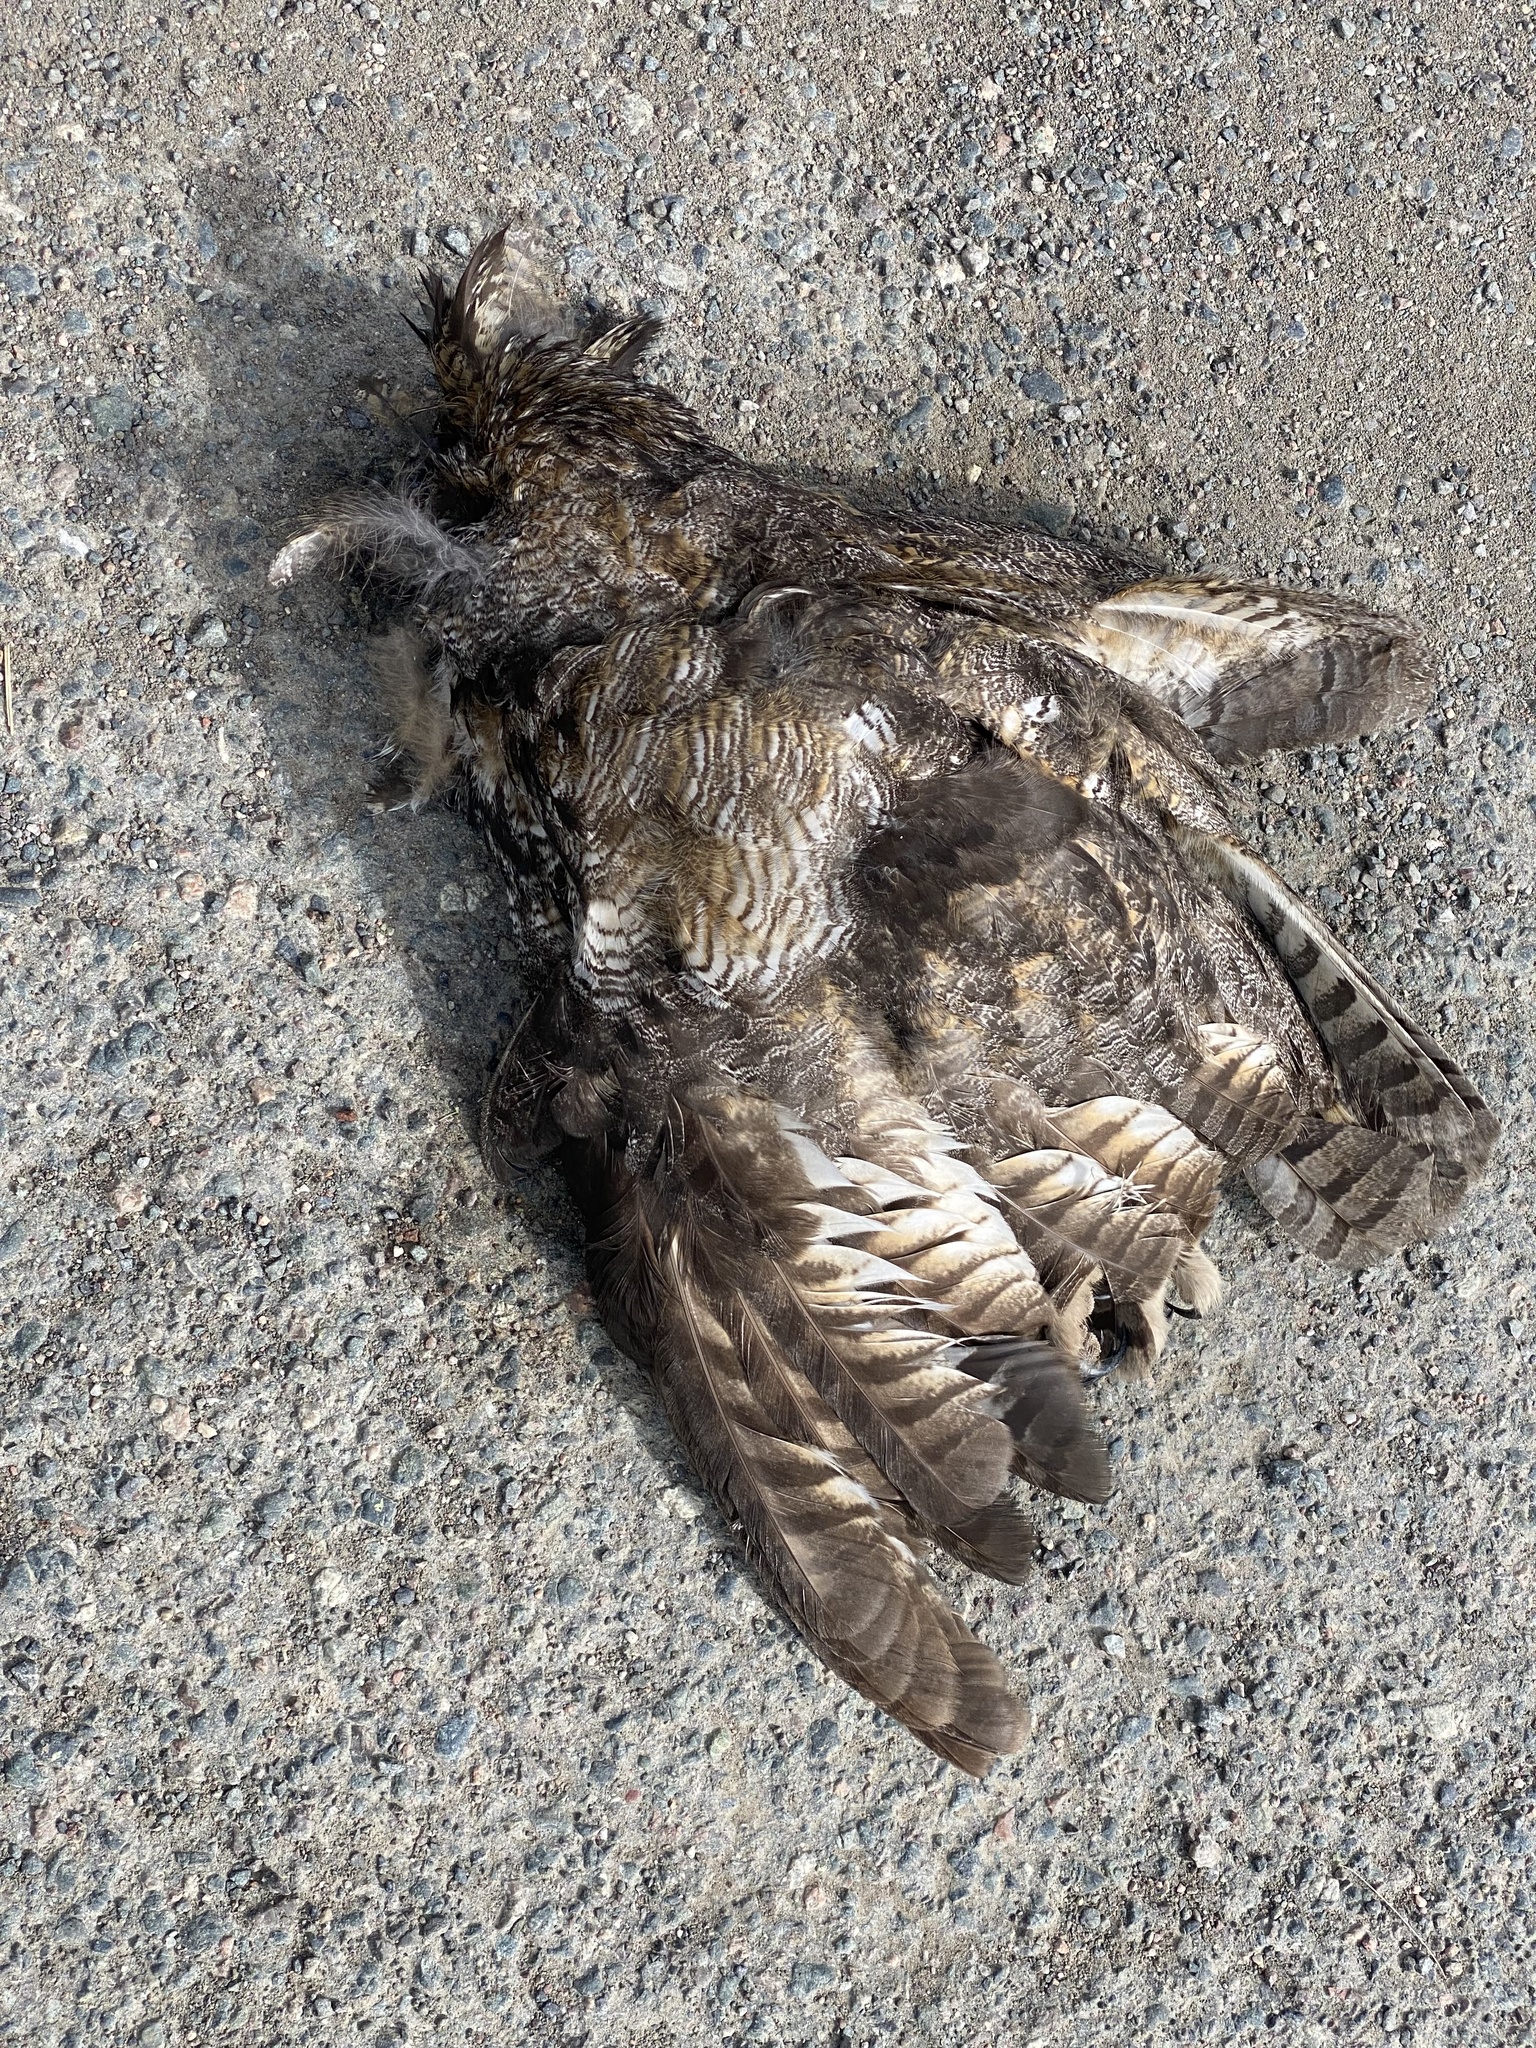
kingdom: Animalia
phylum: Chordata
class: Aves
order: Strigiformes
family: Strigidae
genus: Bubo
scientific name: Bubo virginianus
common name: Great horned owl
